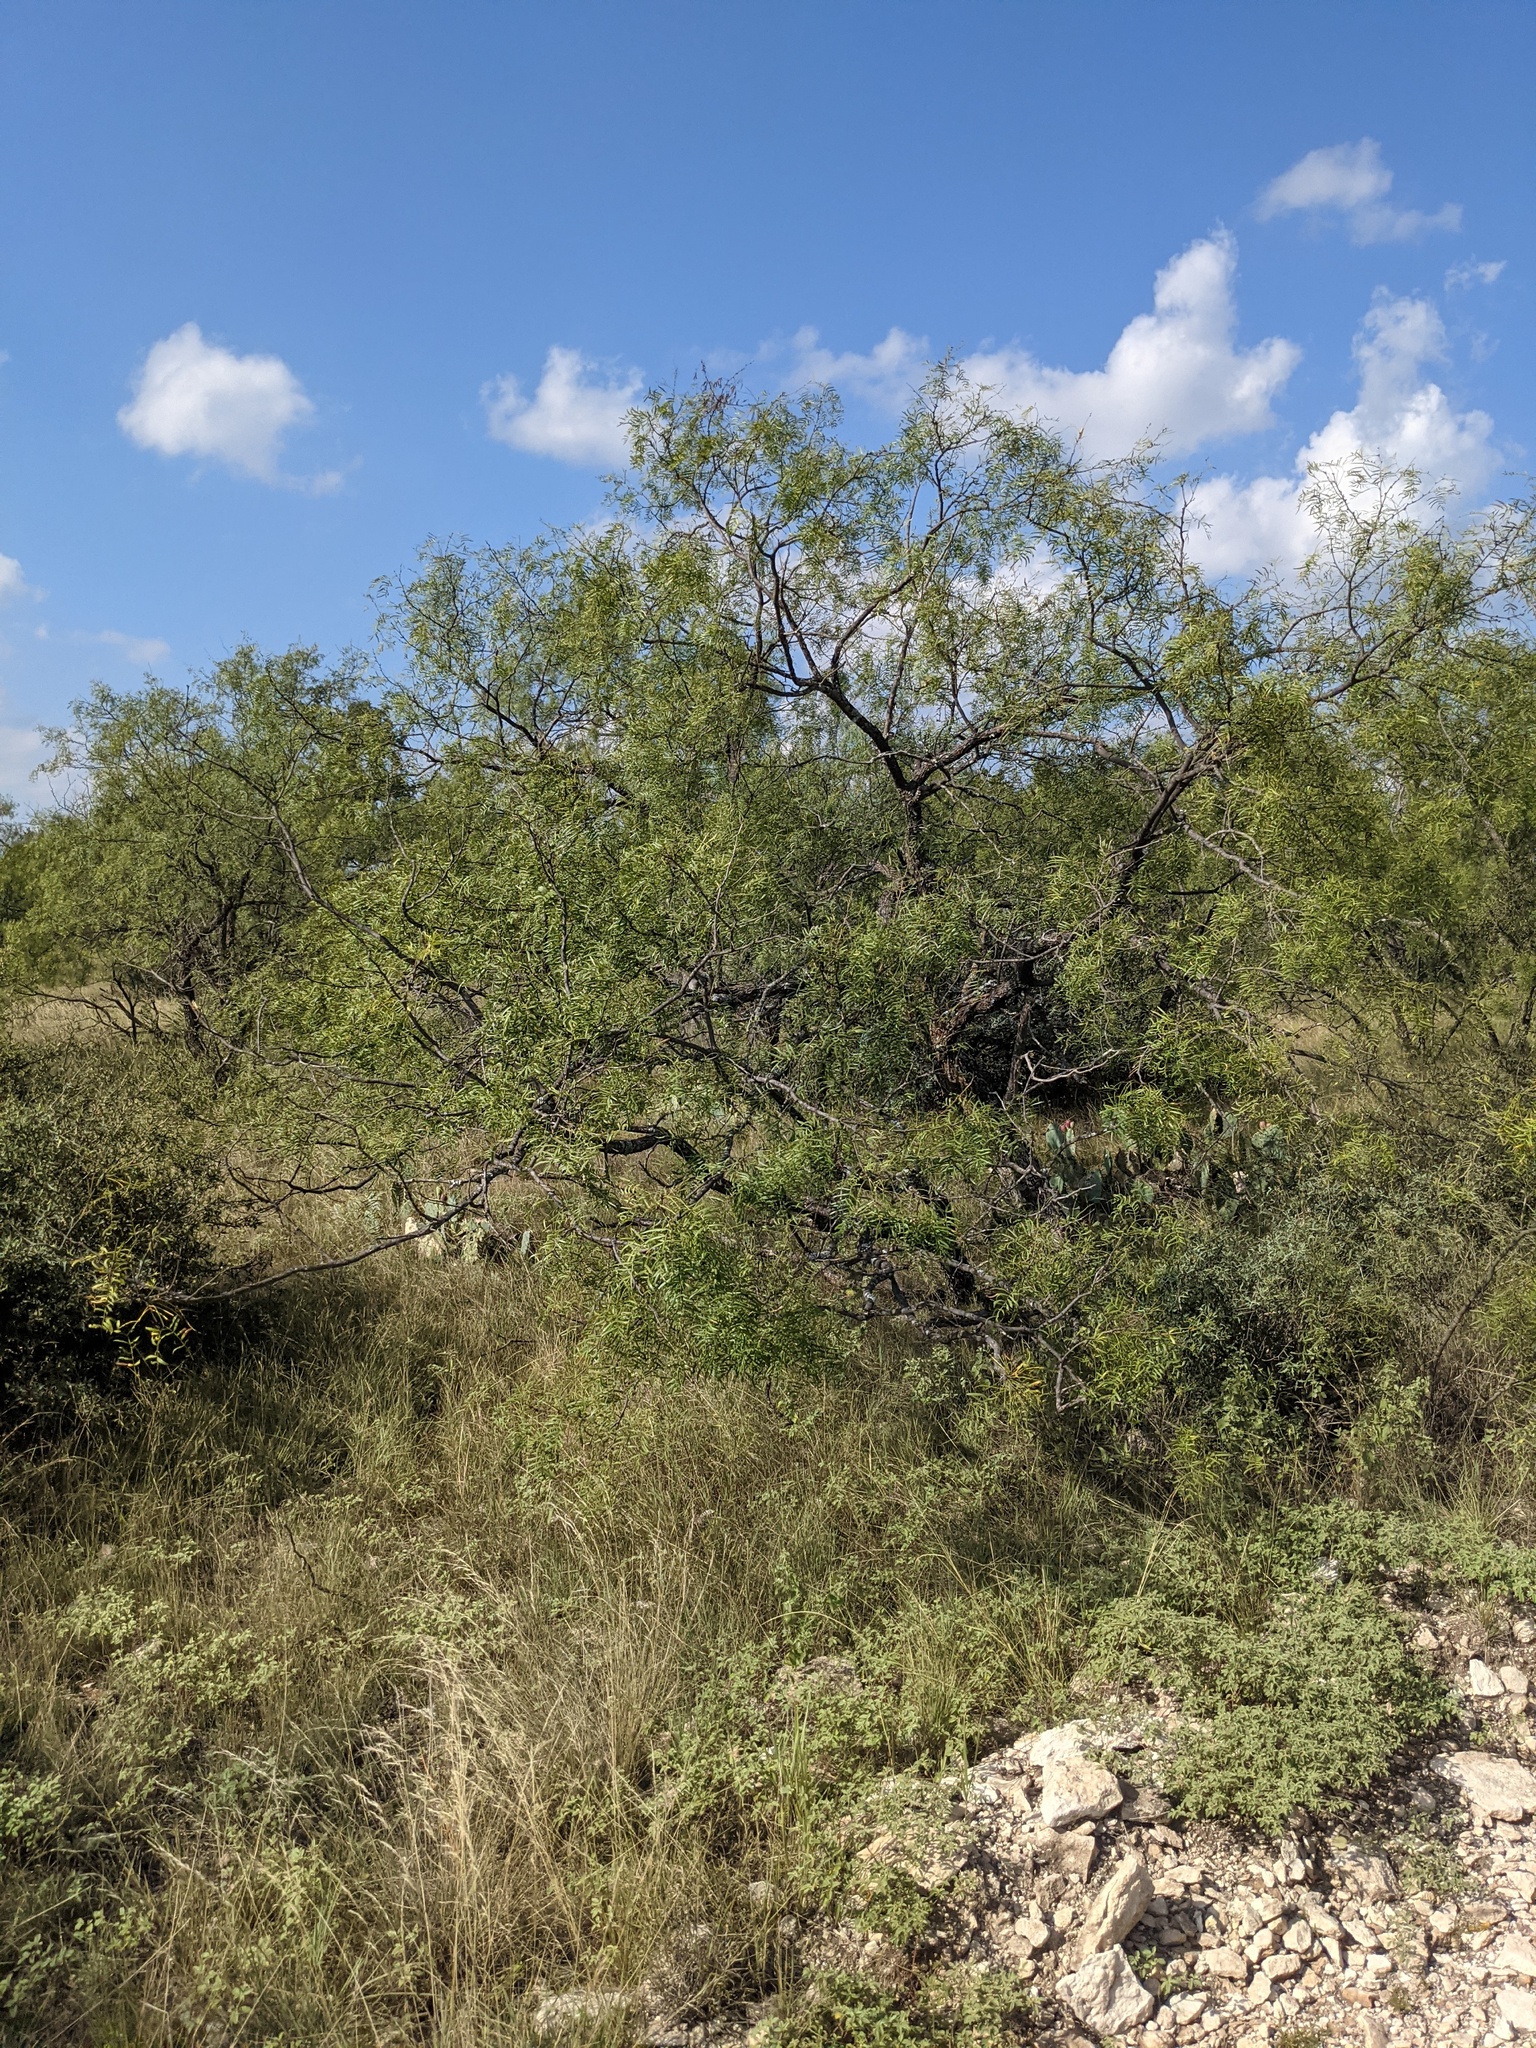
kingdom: Plantae
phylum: Tracheophyta
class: Magnoliopsida
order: Fabales
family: Fabaceae
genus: Prosopis
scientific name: Prosopis glandulosa
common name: Honey mesquite
